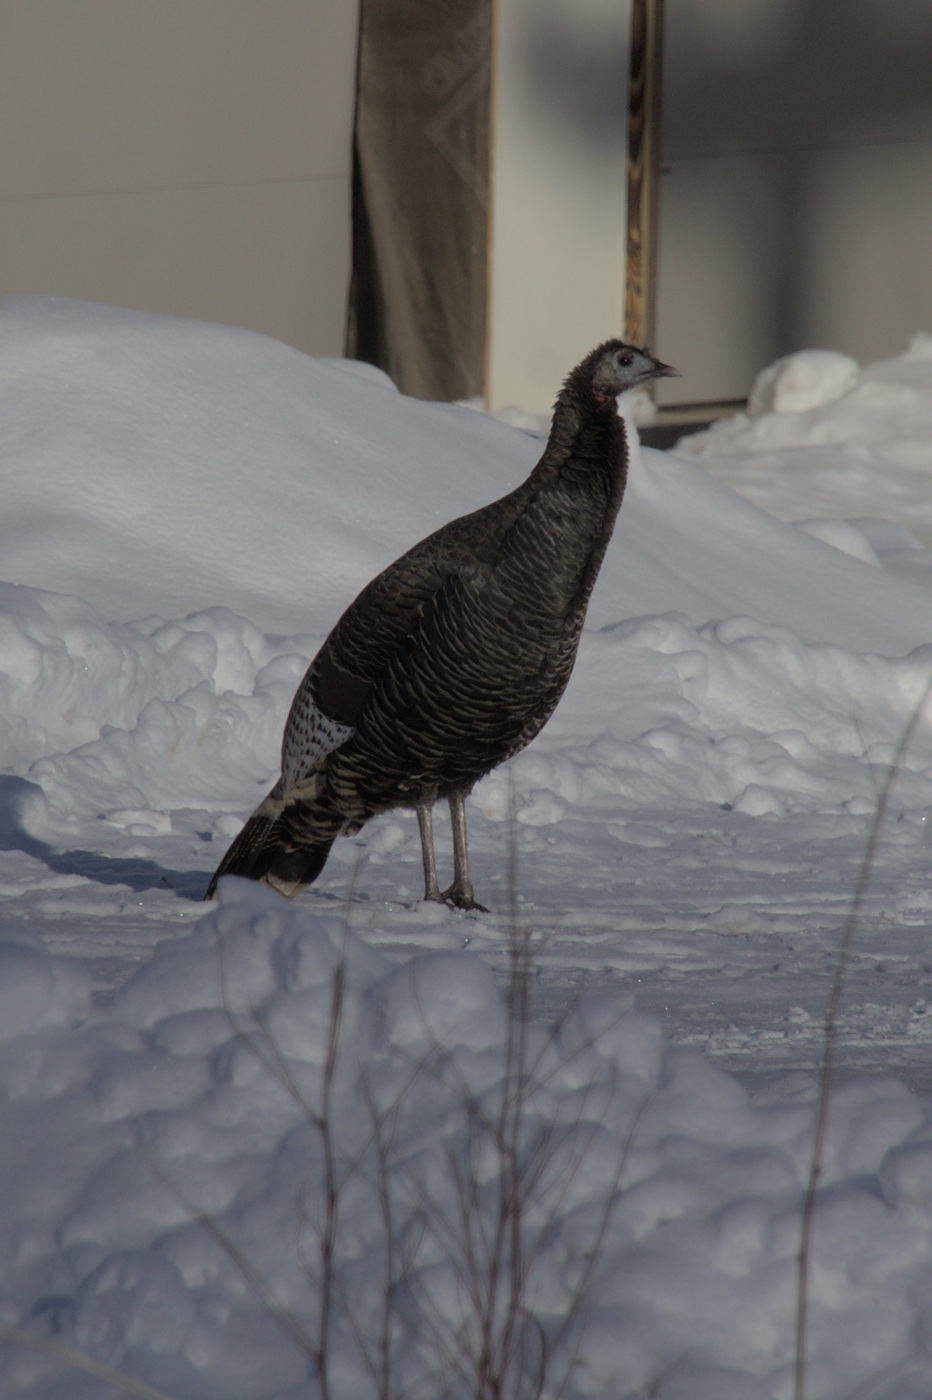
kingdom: Animalia
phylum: Chordata
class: Aves
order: Galliformes
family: Phasianidae
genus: Meleagris
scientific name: Meleagris gallopavo
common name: Wild turkey
